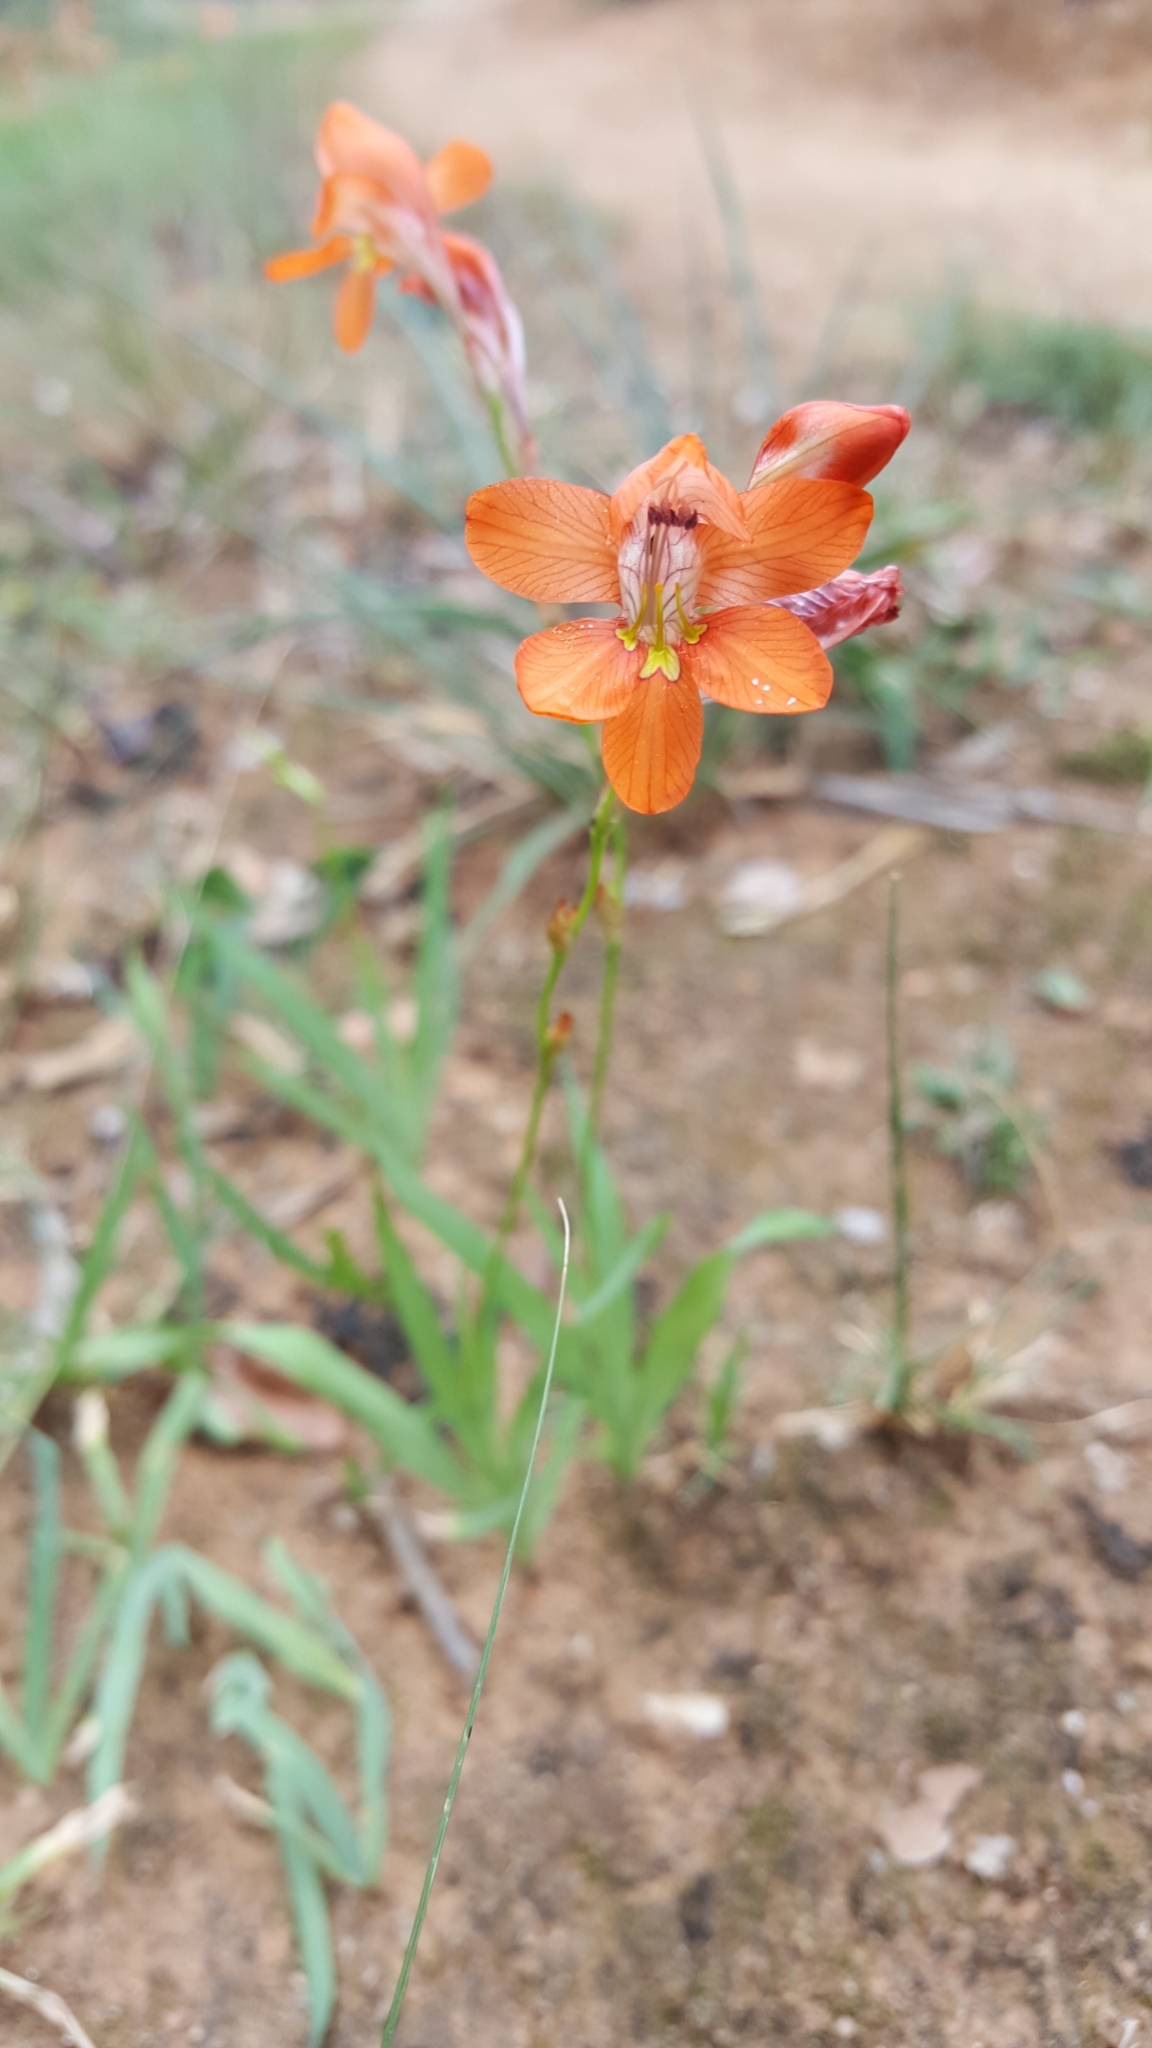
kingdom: Plantae
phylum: Tracheophyta
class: Liliopsida
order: Asparagales
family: Iridaceae
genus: Tritonia
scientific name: Tritonia laxifolia
